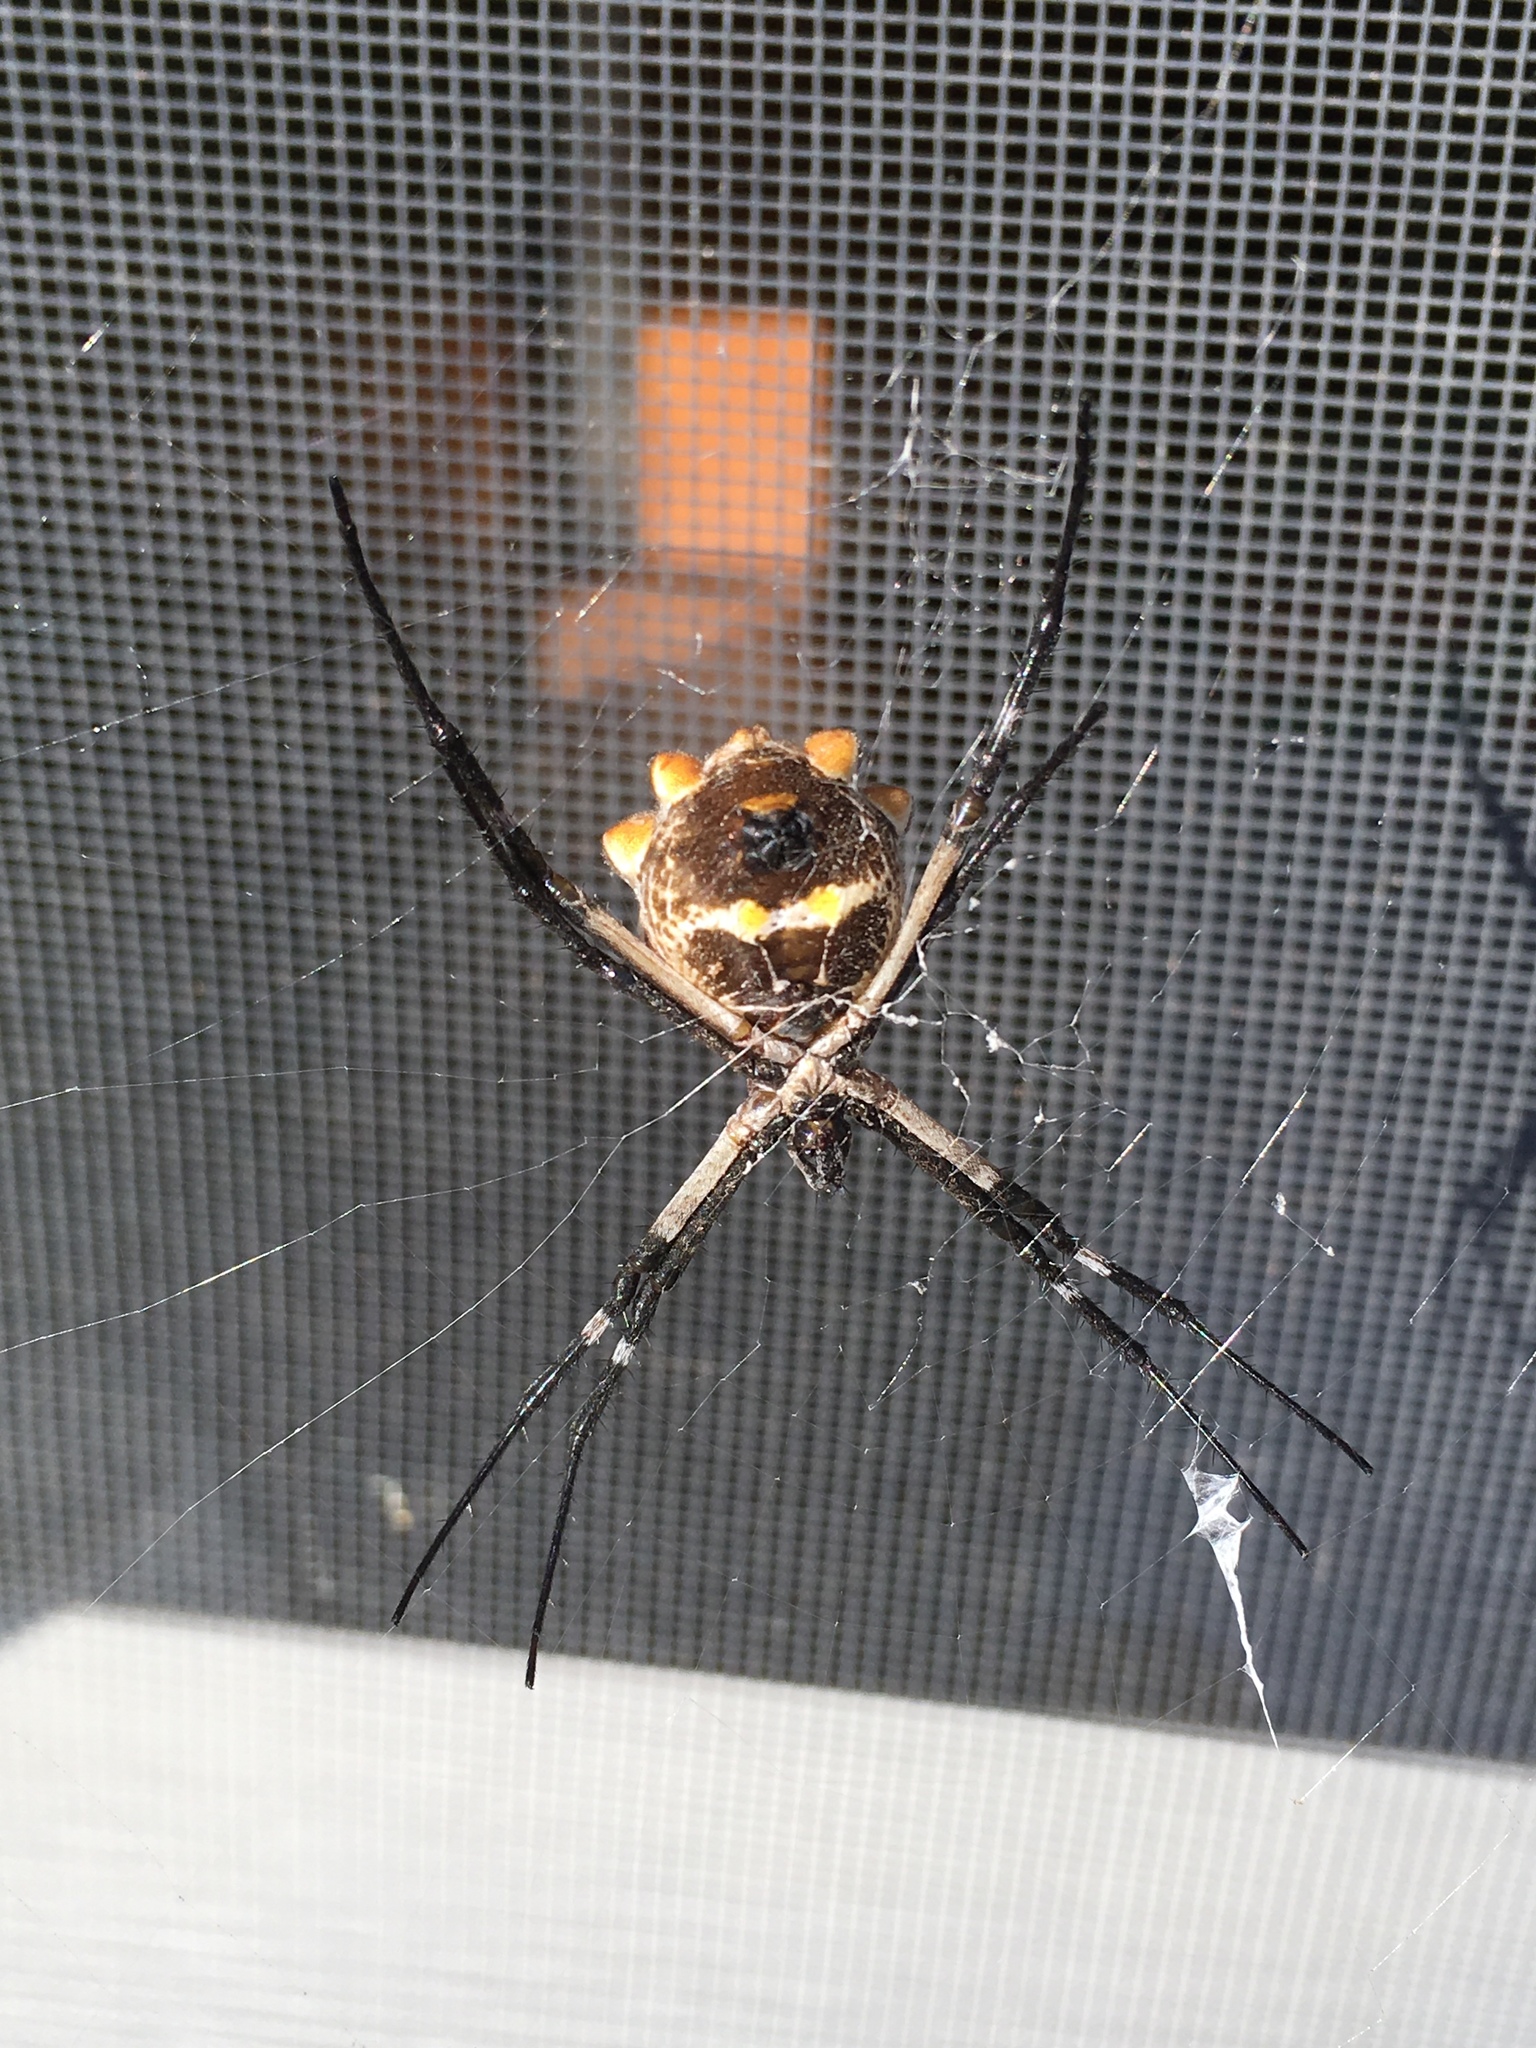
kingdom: Animalia
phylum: Arthropoda
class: Arachnida
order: Araneae
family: Araneidae
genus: Argiope
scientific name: Argiope argentata
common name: Orb weavers
